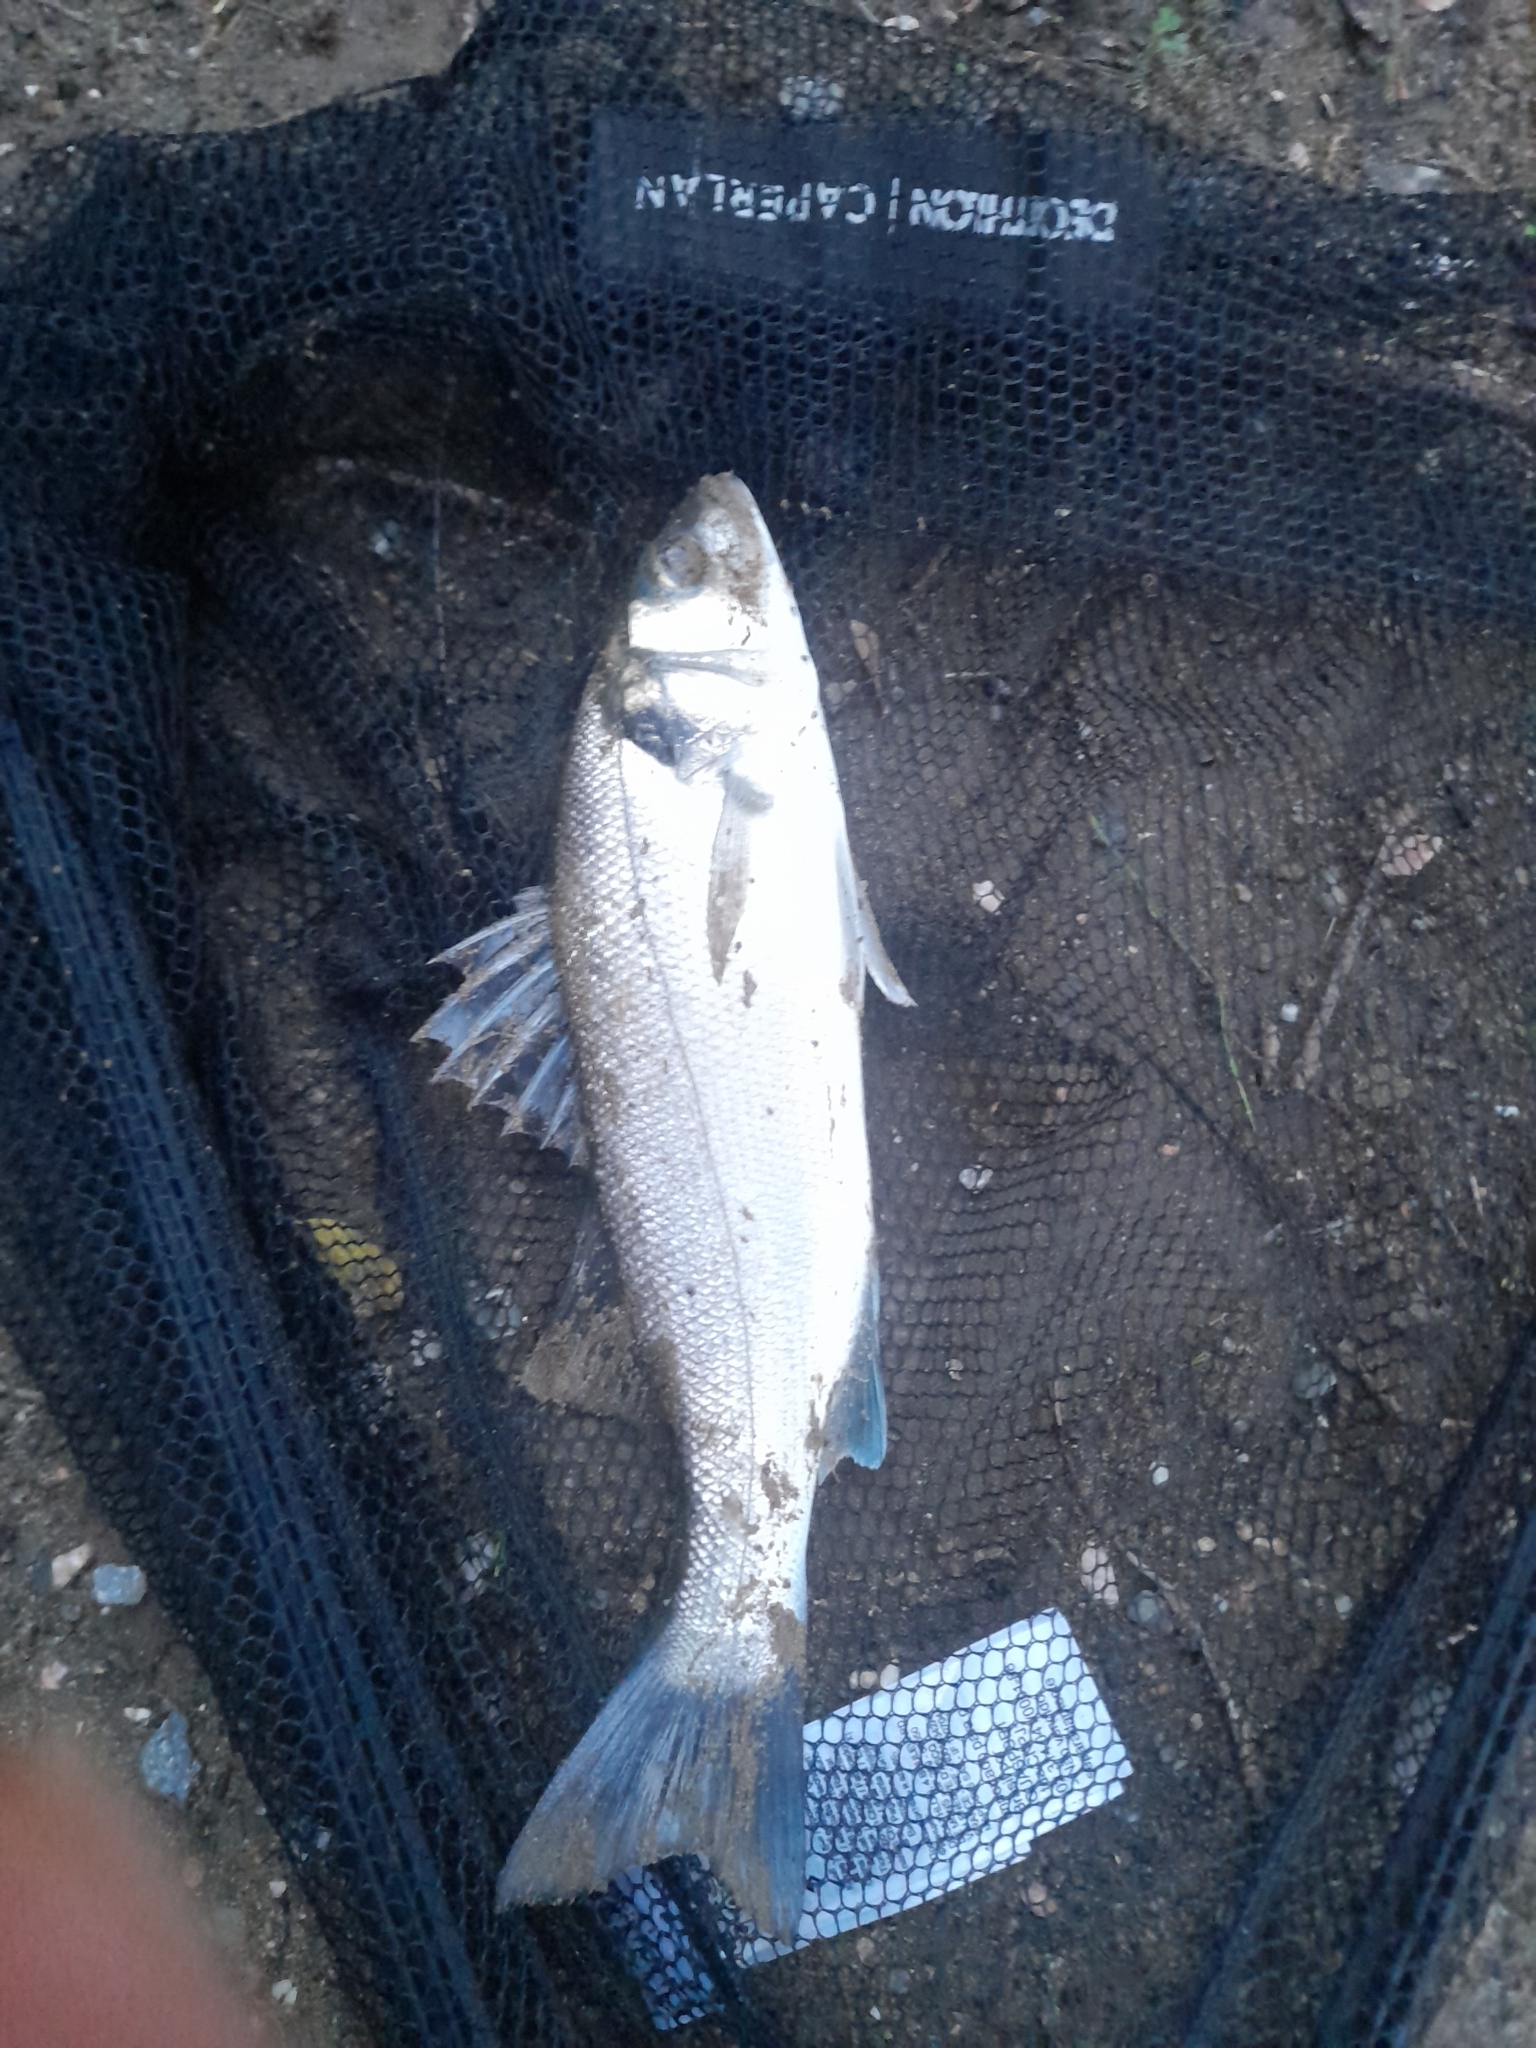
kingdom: Animalia
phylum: Chordata
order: Perciformes
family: Moronidae
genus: Dicentrarchus
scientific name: Dicentrarchus labrax
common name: European seabass
